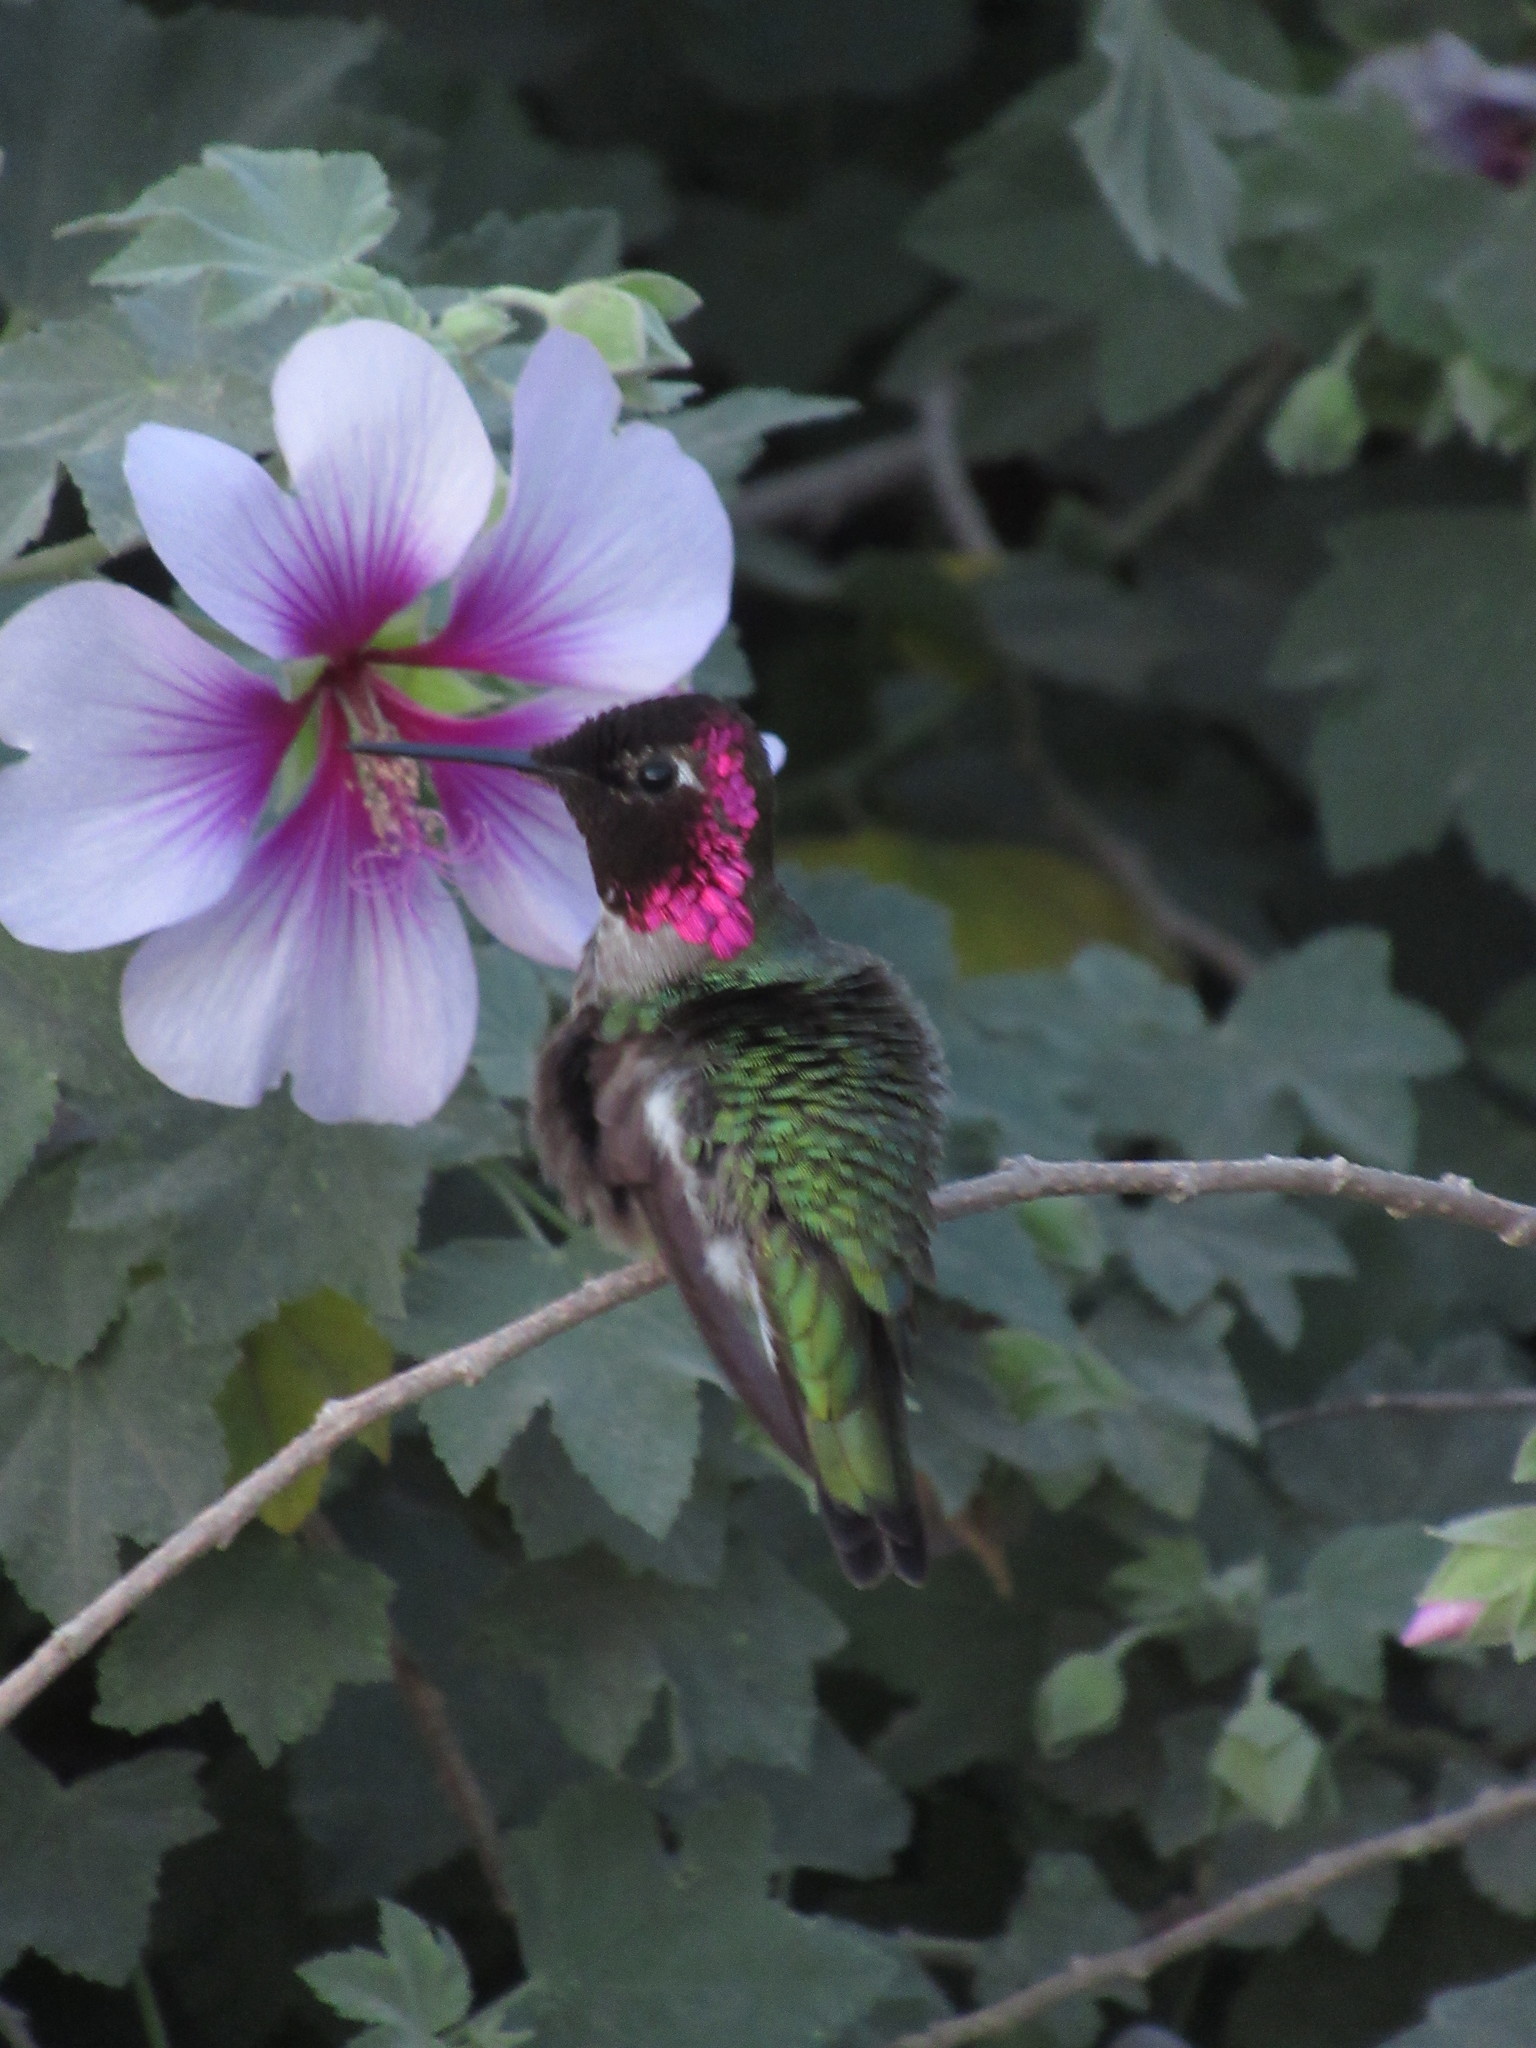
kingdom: Animalia
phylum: Chordata
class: Aves
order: Apodiformes
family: Trochilidae
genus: Calypte
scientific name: Calypte anna
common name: Anna's hummingbird
